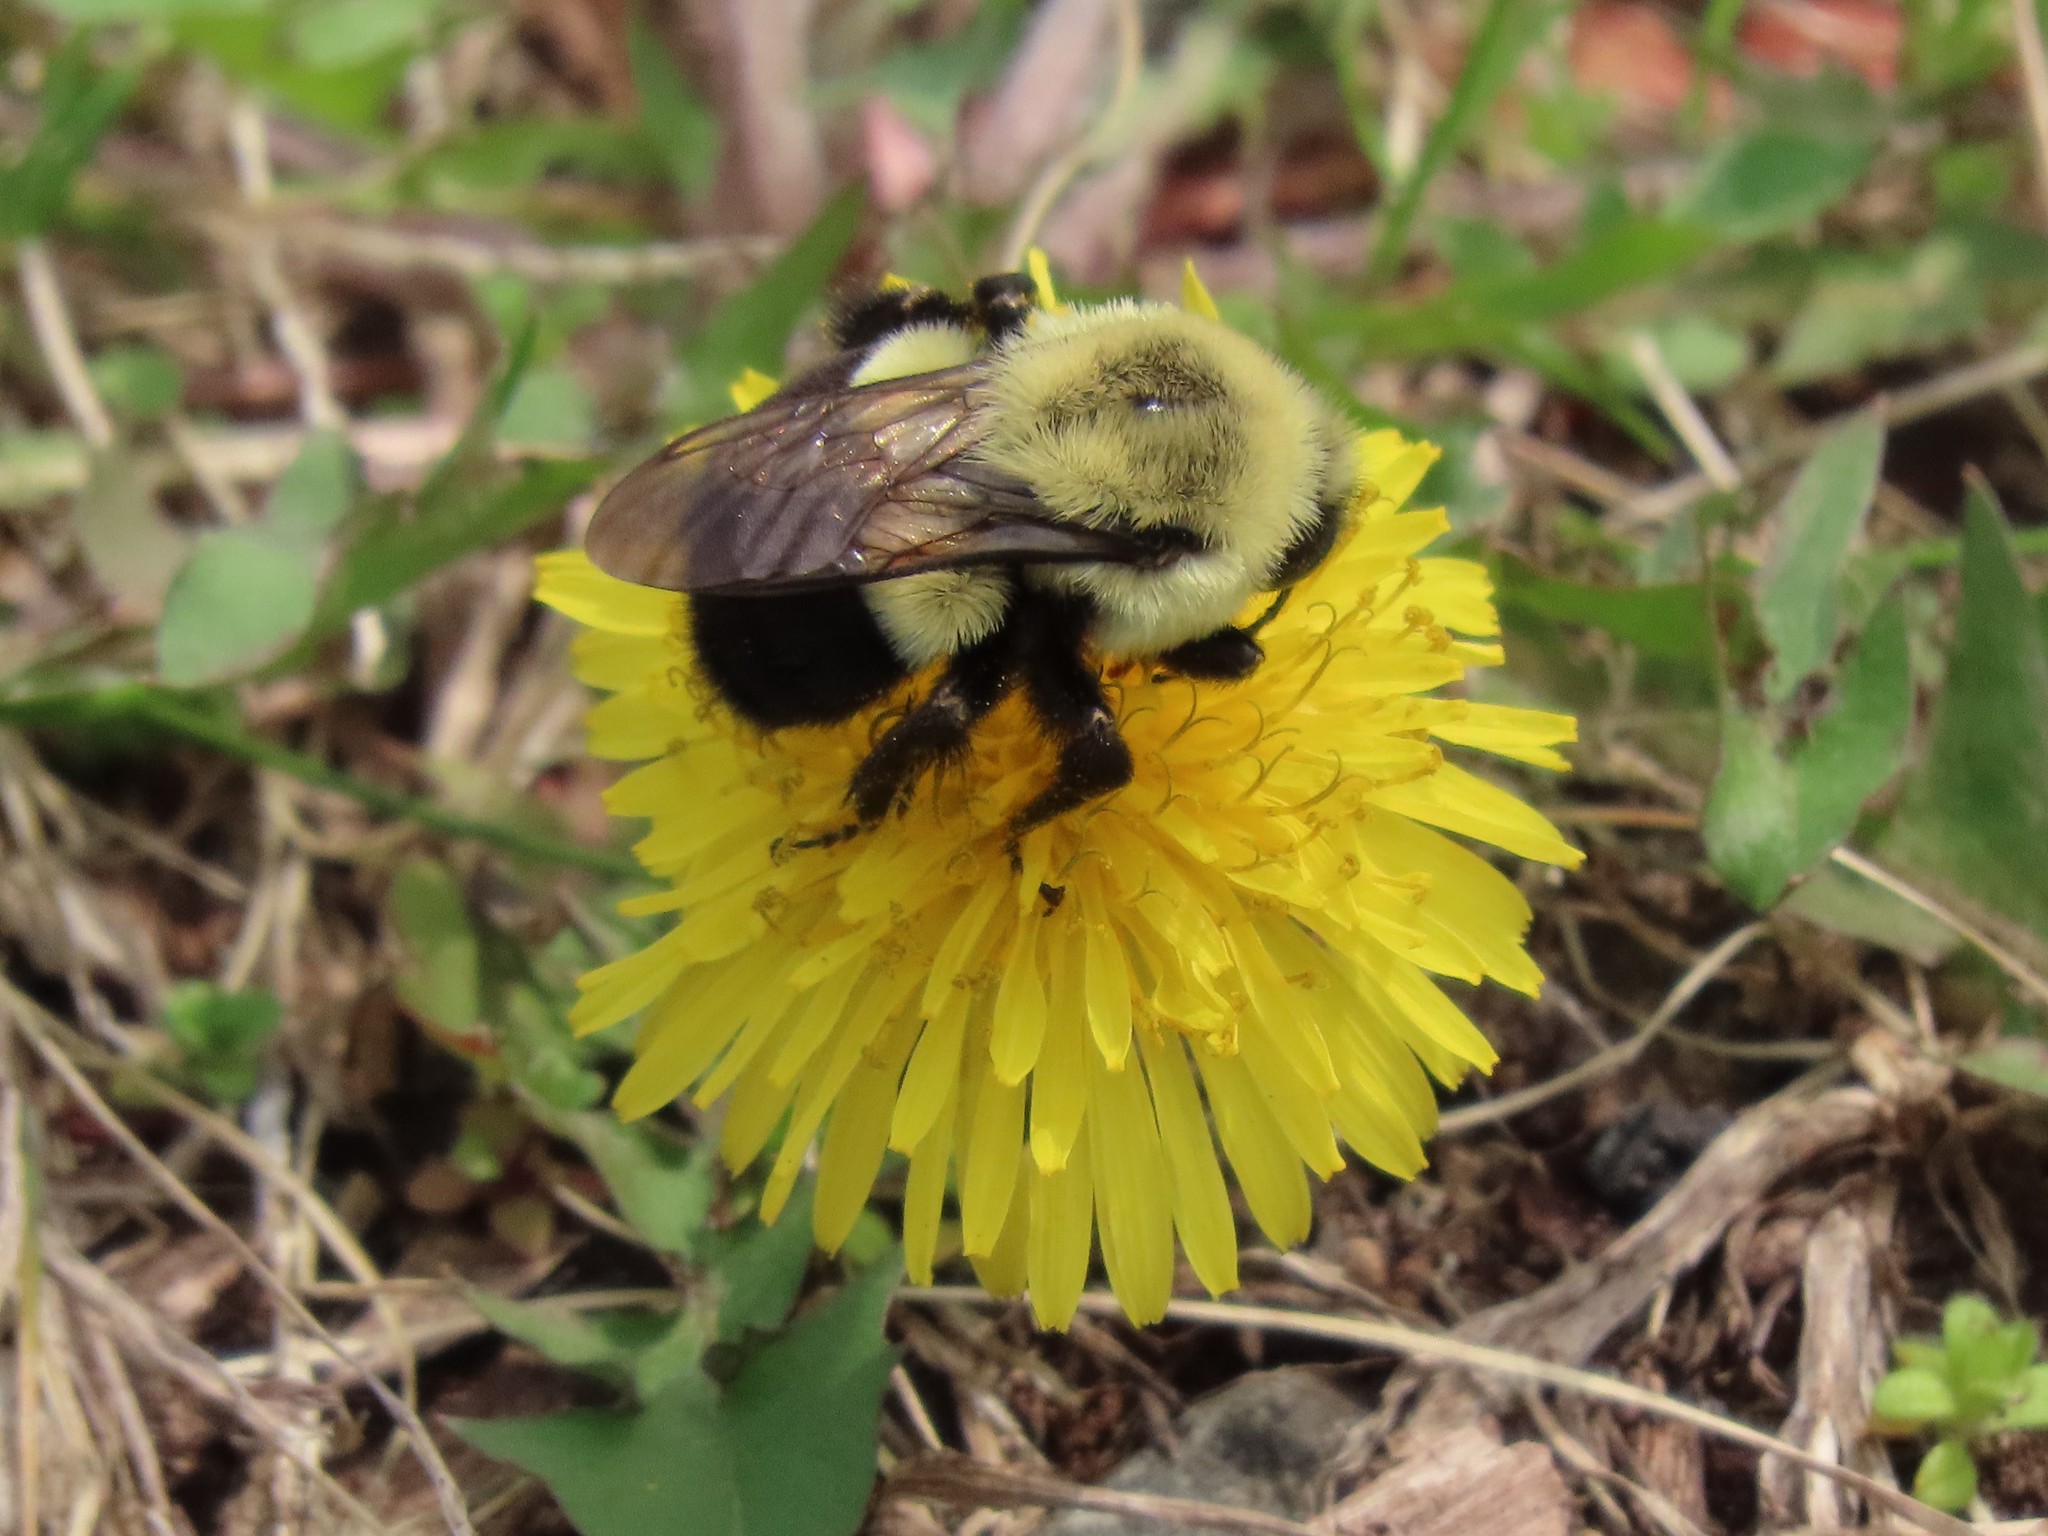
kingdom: Animalia
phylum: Arthropoda
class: Insecta
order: Hymenoptera
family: Apidae
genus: Bombus
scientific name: Bombus impatiens
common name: Common eastern bumble bee
